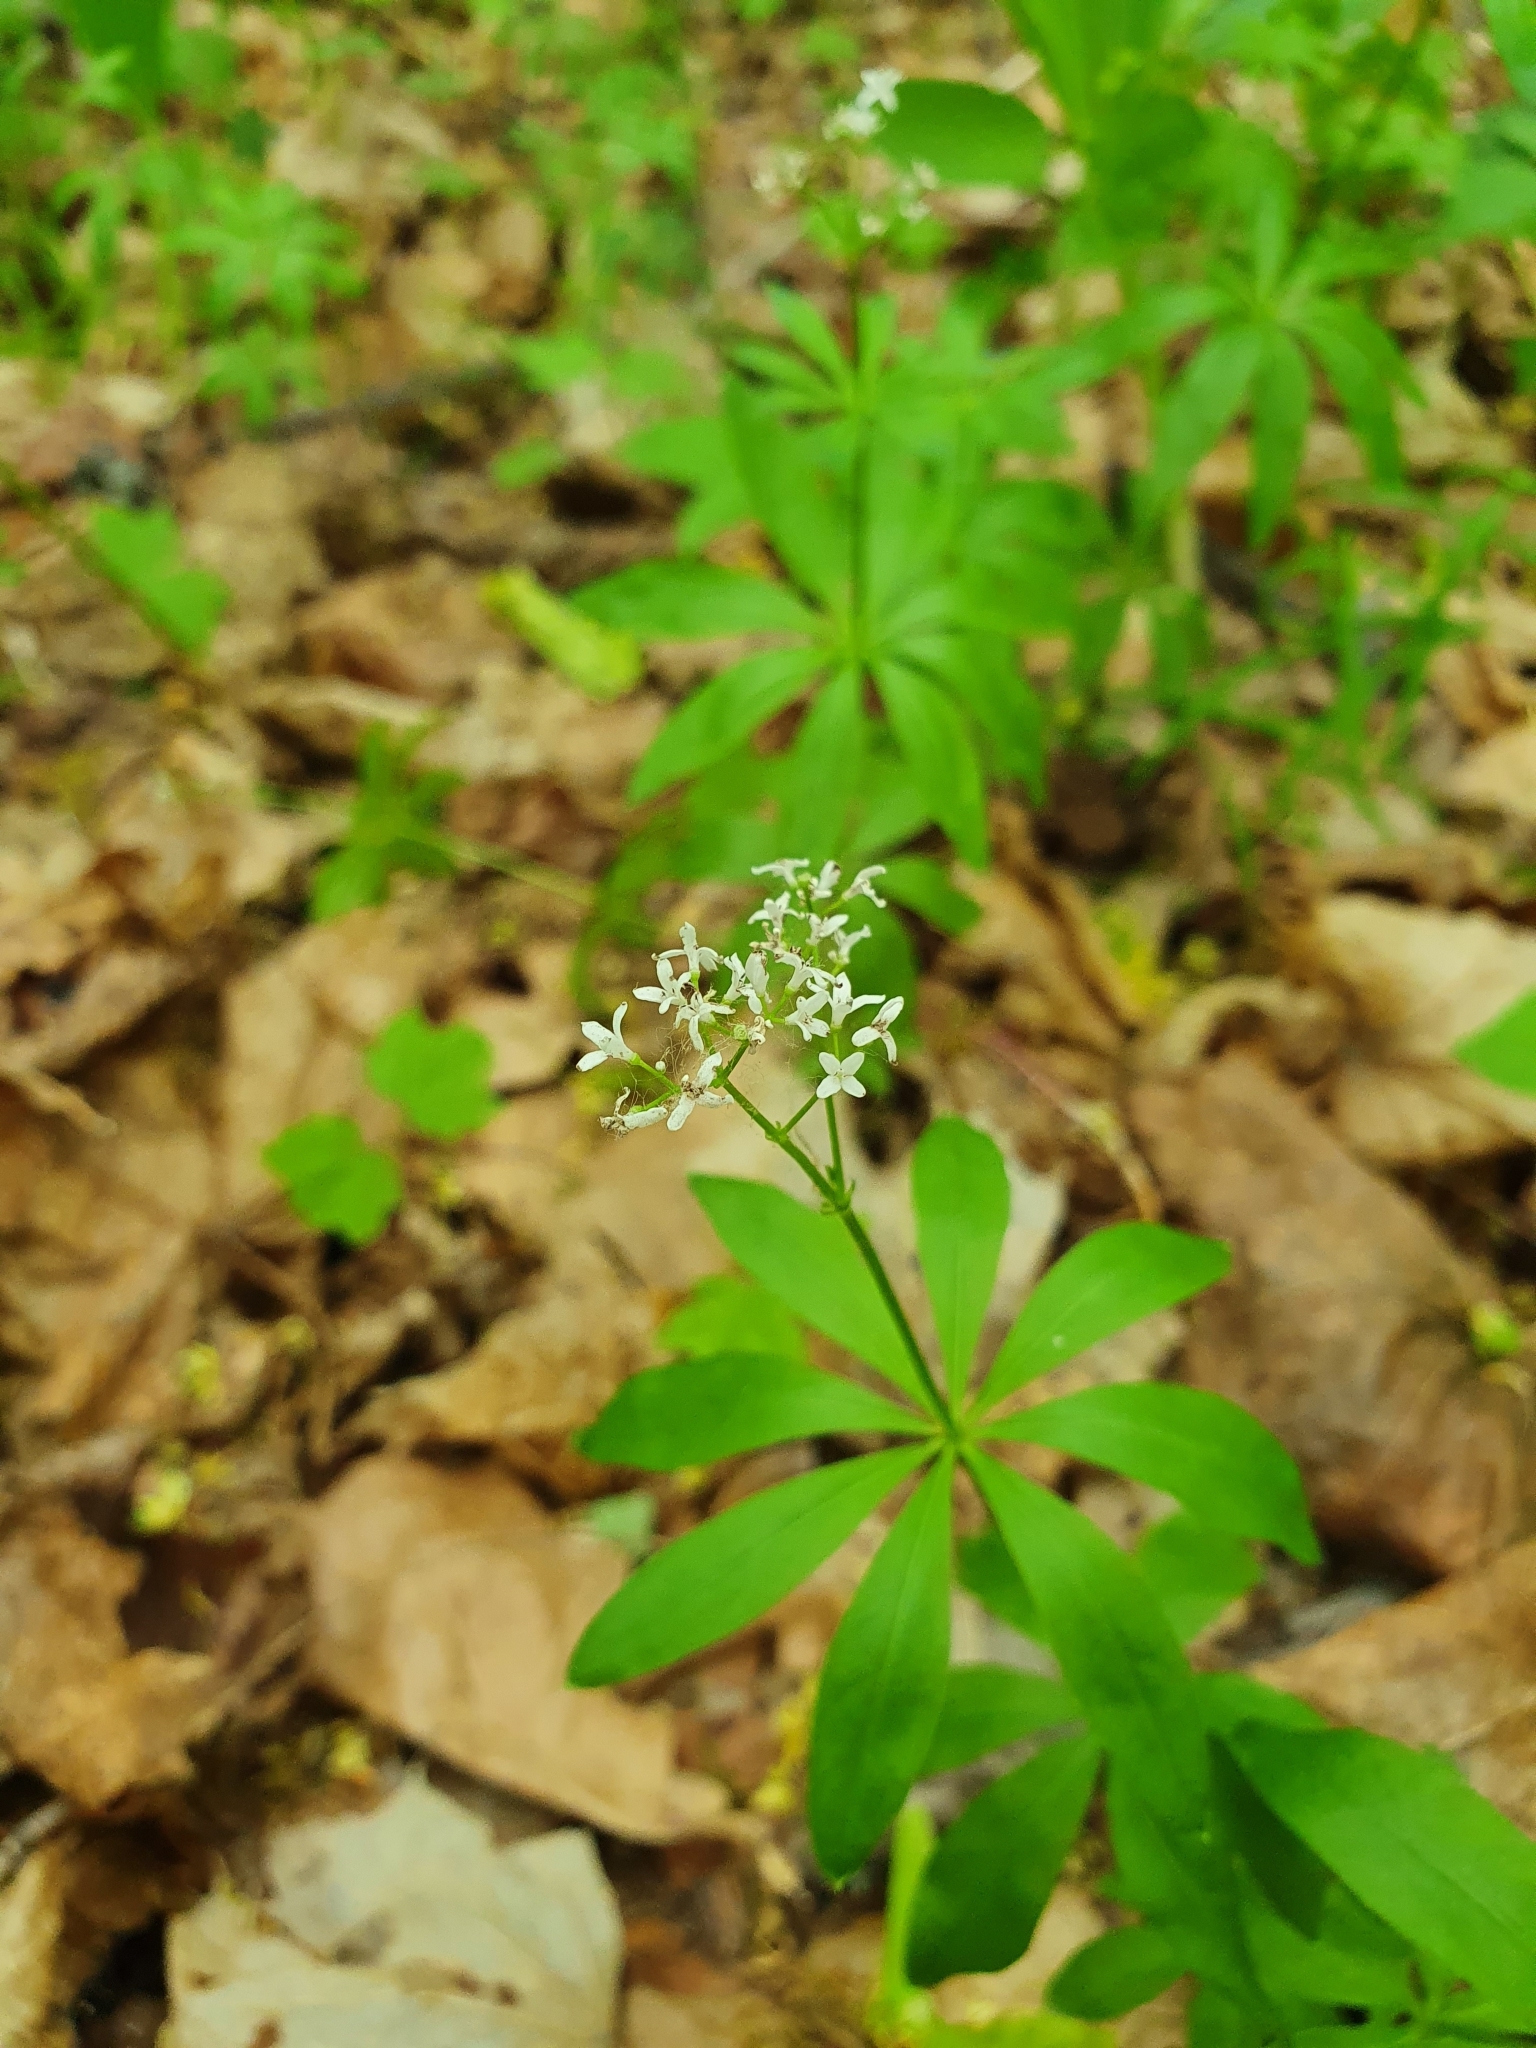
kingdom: Plantae
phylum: Tracheophyta
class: Magnoliopsida
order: Gentianales
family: Rubiaceae
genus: Galium
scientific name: Galium odoratum
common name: Sweet woodruff
